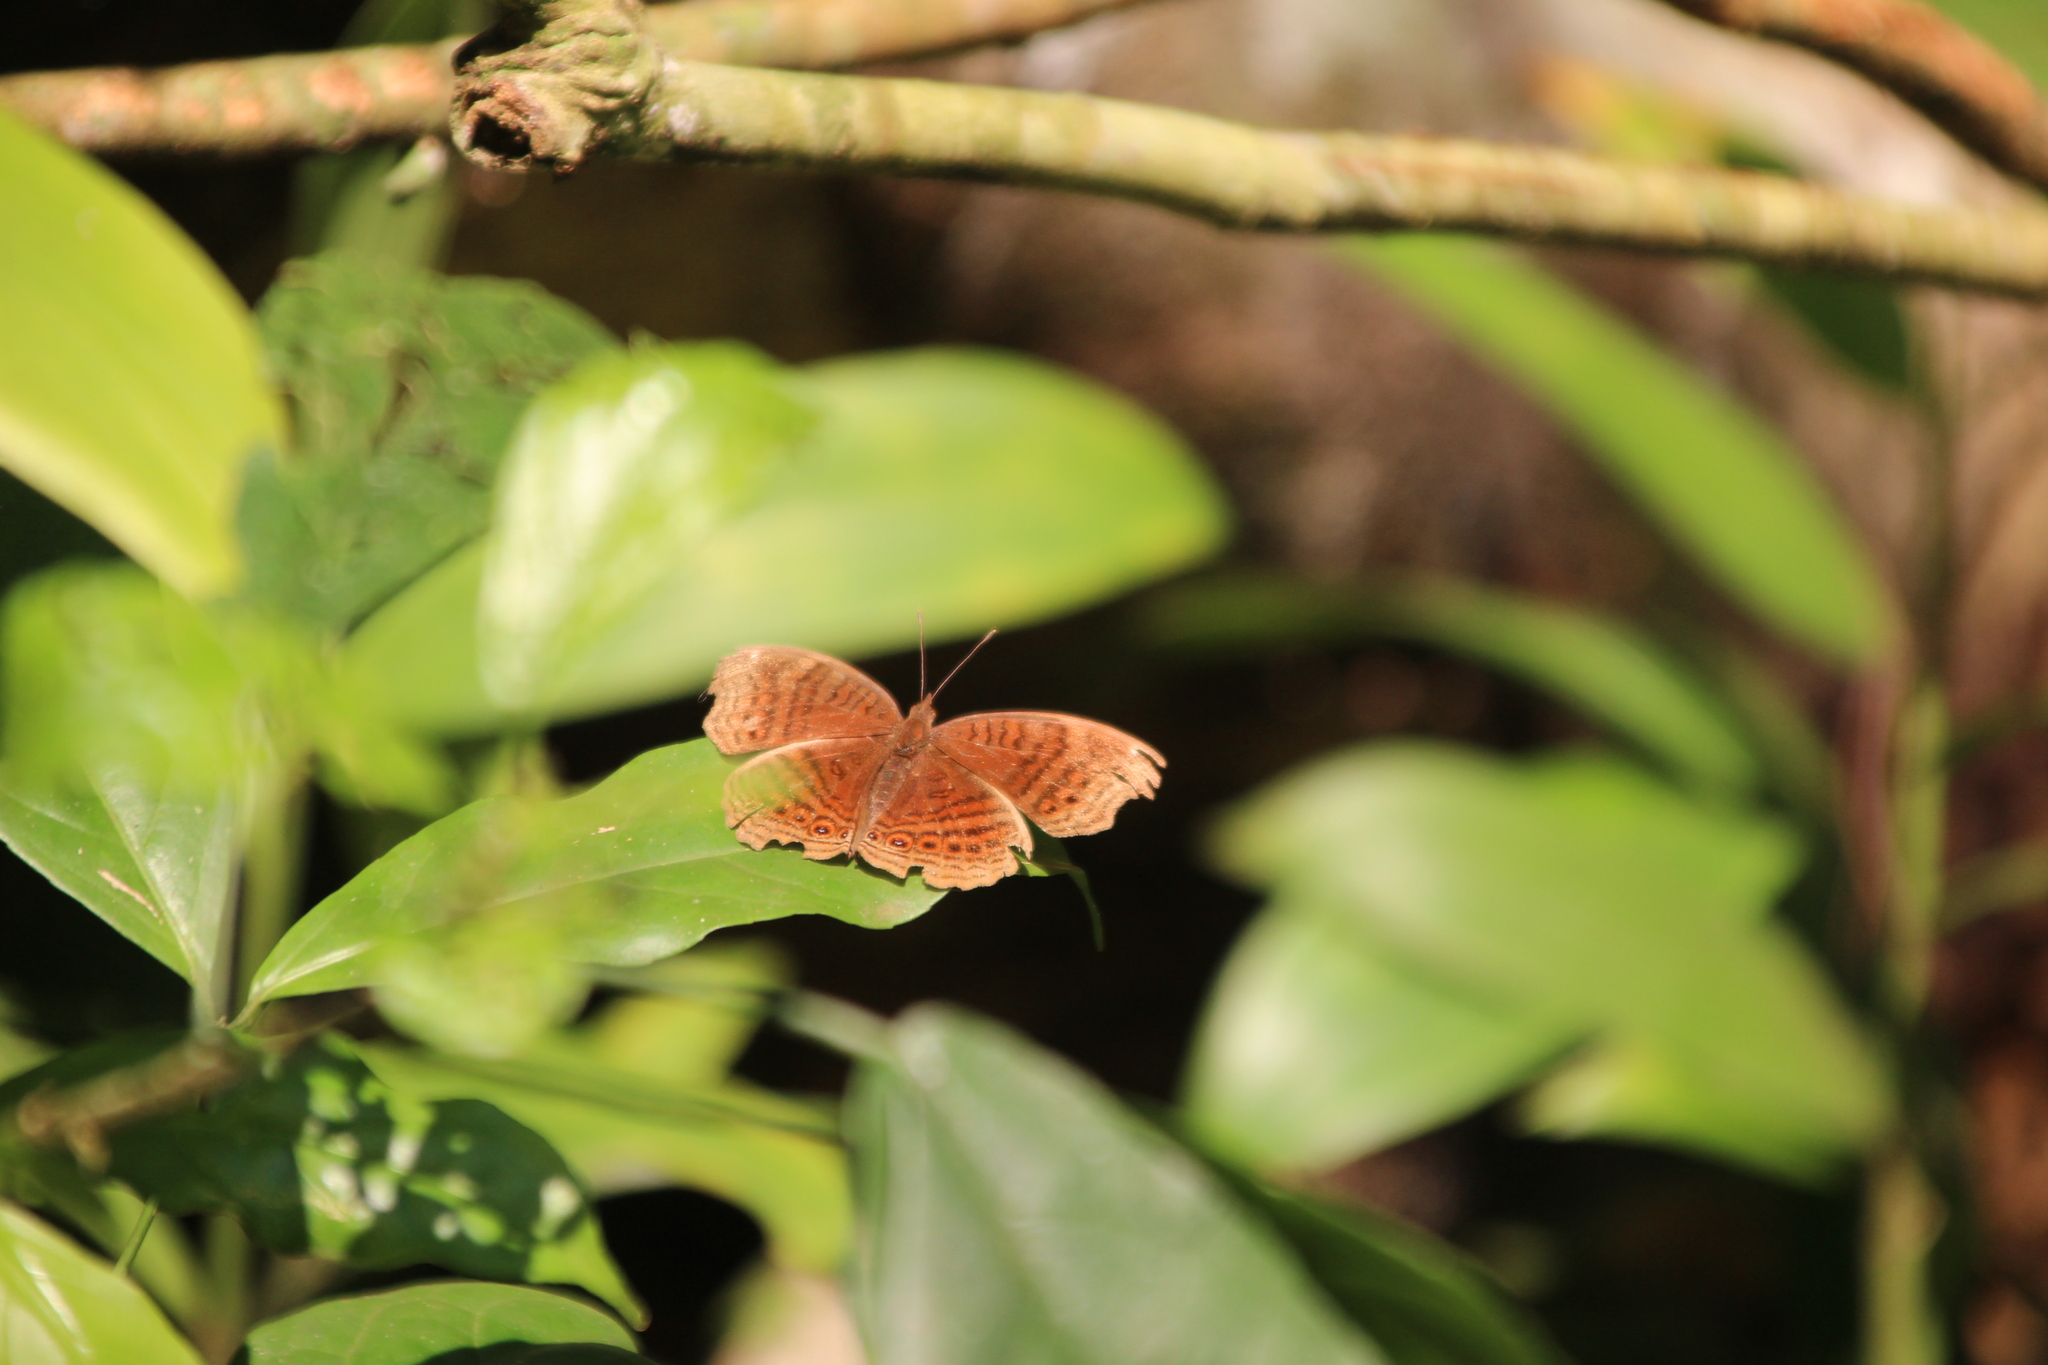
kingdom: Animalia
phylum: Arthropoda
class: Insecta
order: Lepidoptera
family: Nymphalidae
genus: Junonia
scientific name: Junonia stygia
